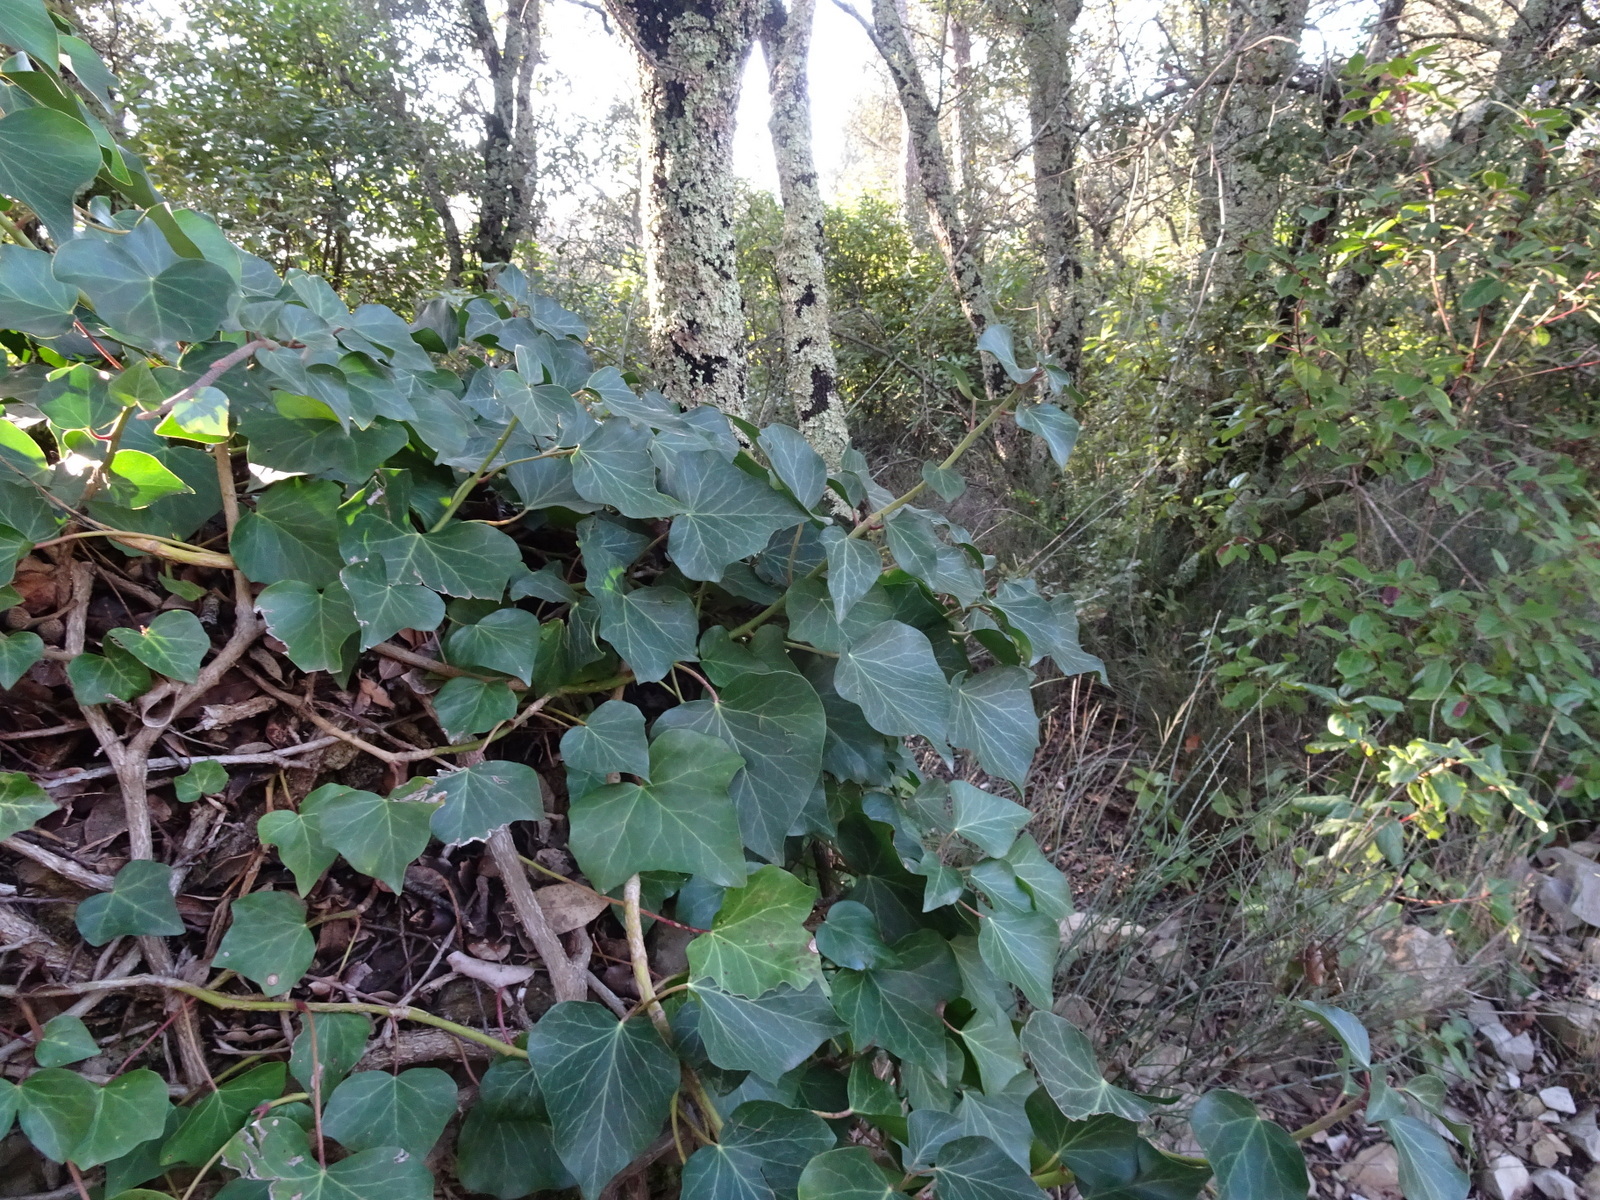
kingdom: Plantae
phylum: Tracheophyta
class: Magnoliopsida
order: Apiales
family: Araliaceae
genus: Hedera
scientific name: Hedera helix
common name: Ivy
